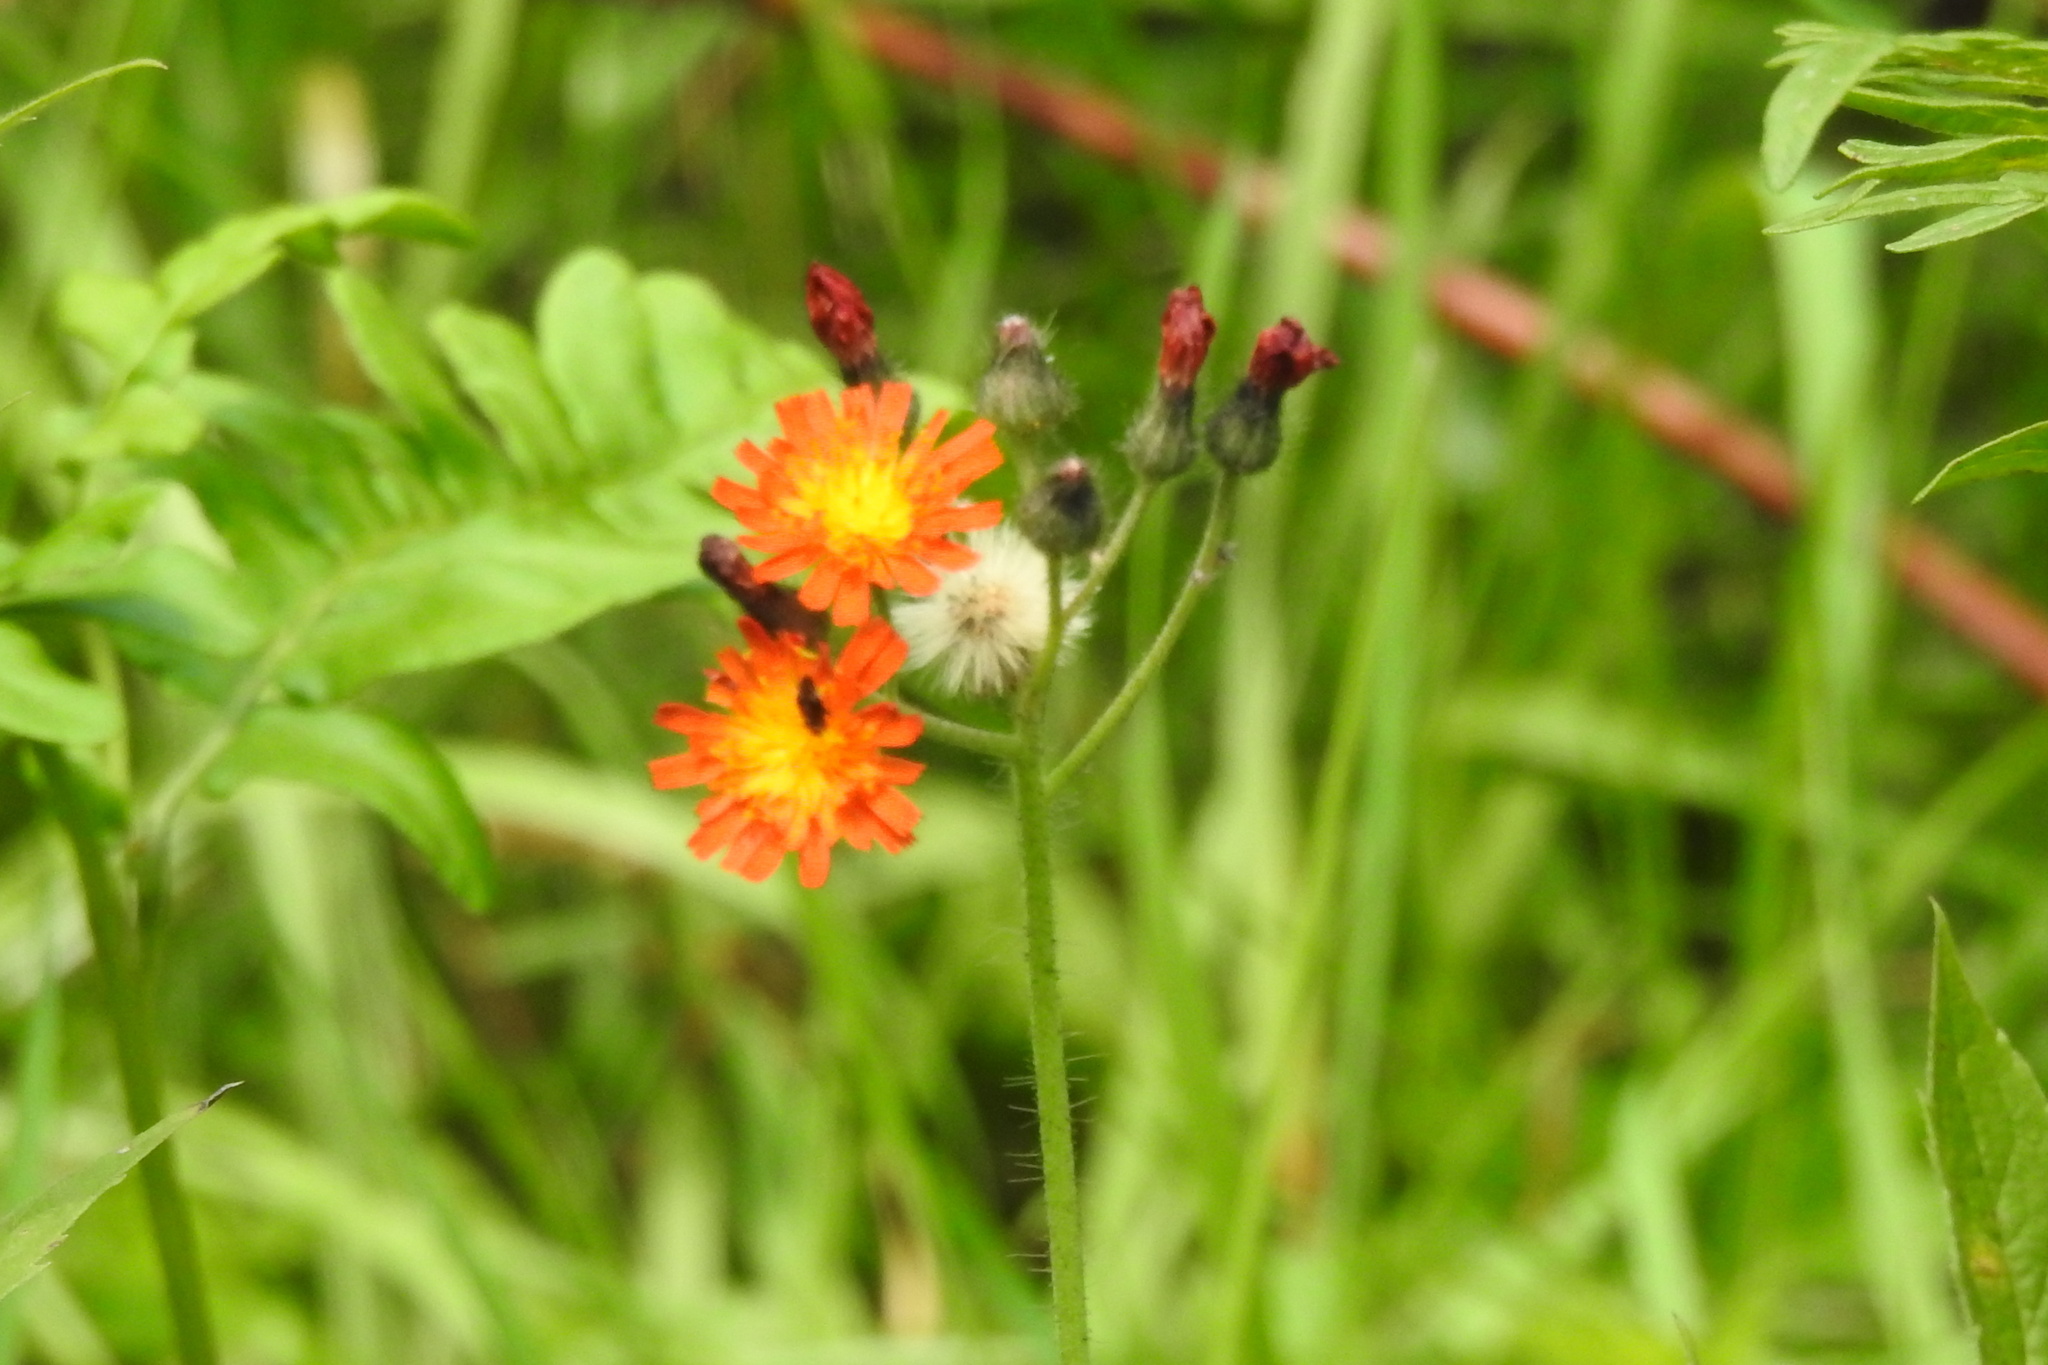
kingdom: Plantae
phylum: Tracheophyta
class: Magnoliopsida
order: Asterales
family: Asteraceae
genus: Pilosella
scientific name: Pilosella aurantiaca
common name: Fox-and-cubs
